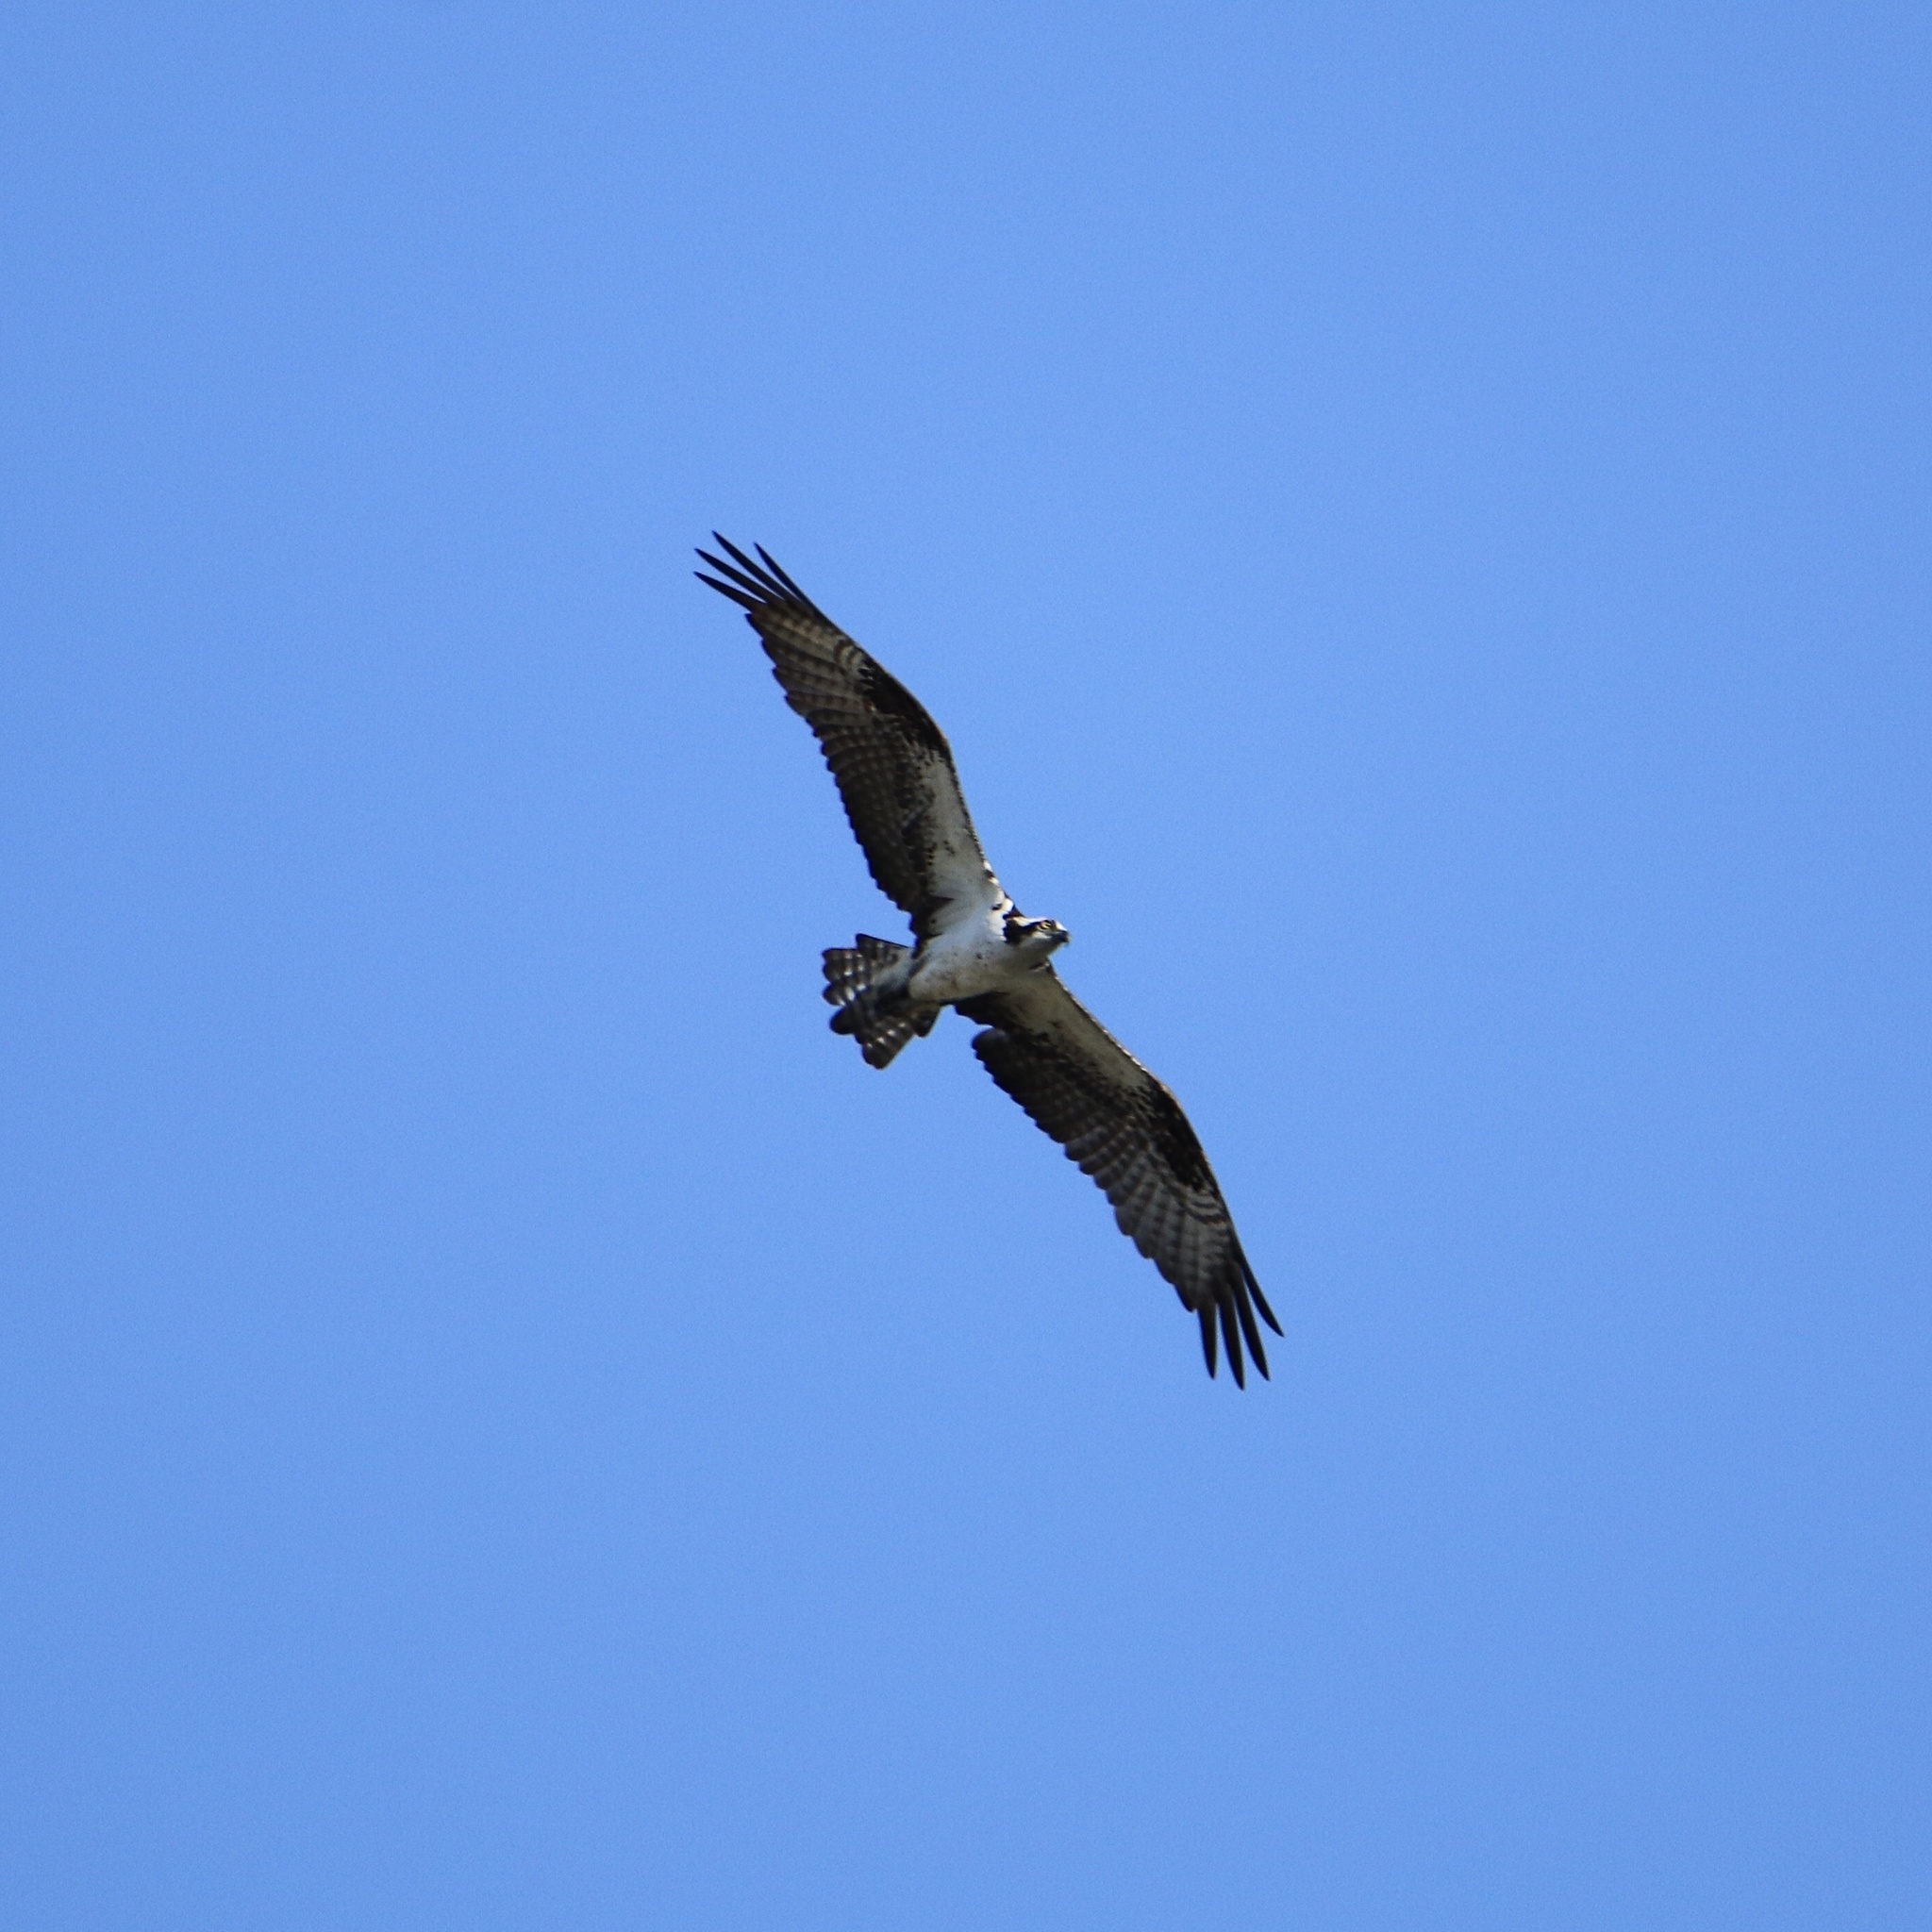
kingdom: Animalia
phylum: Chordata
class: Aves
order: Accipitriformes
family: Pandionidae
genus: Pandion
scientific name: Pandion haliaetus
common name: Osprey
